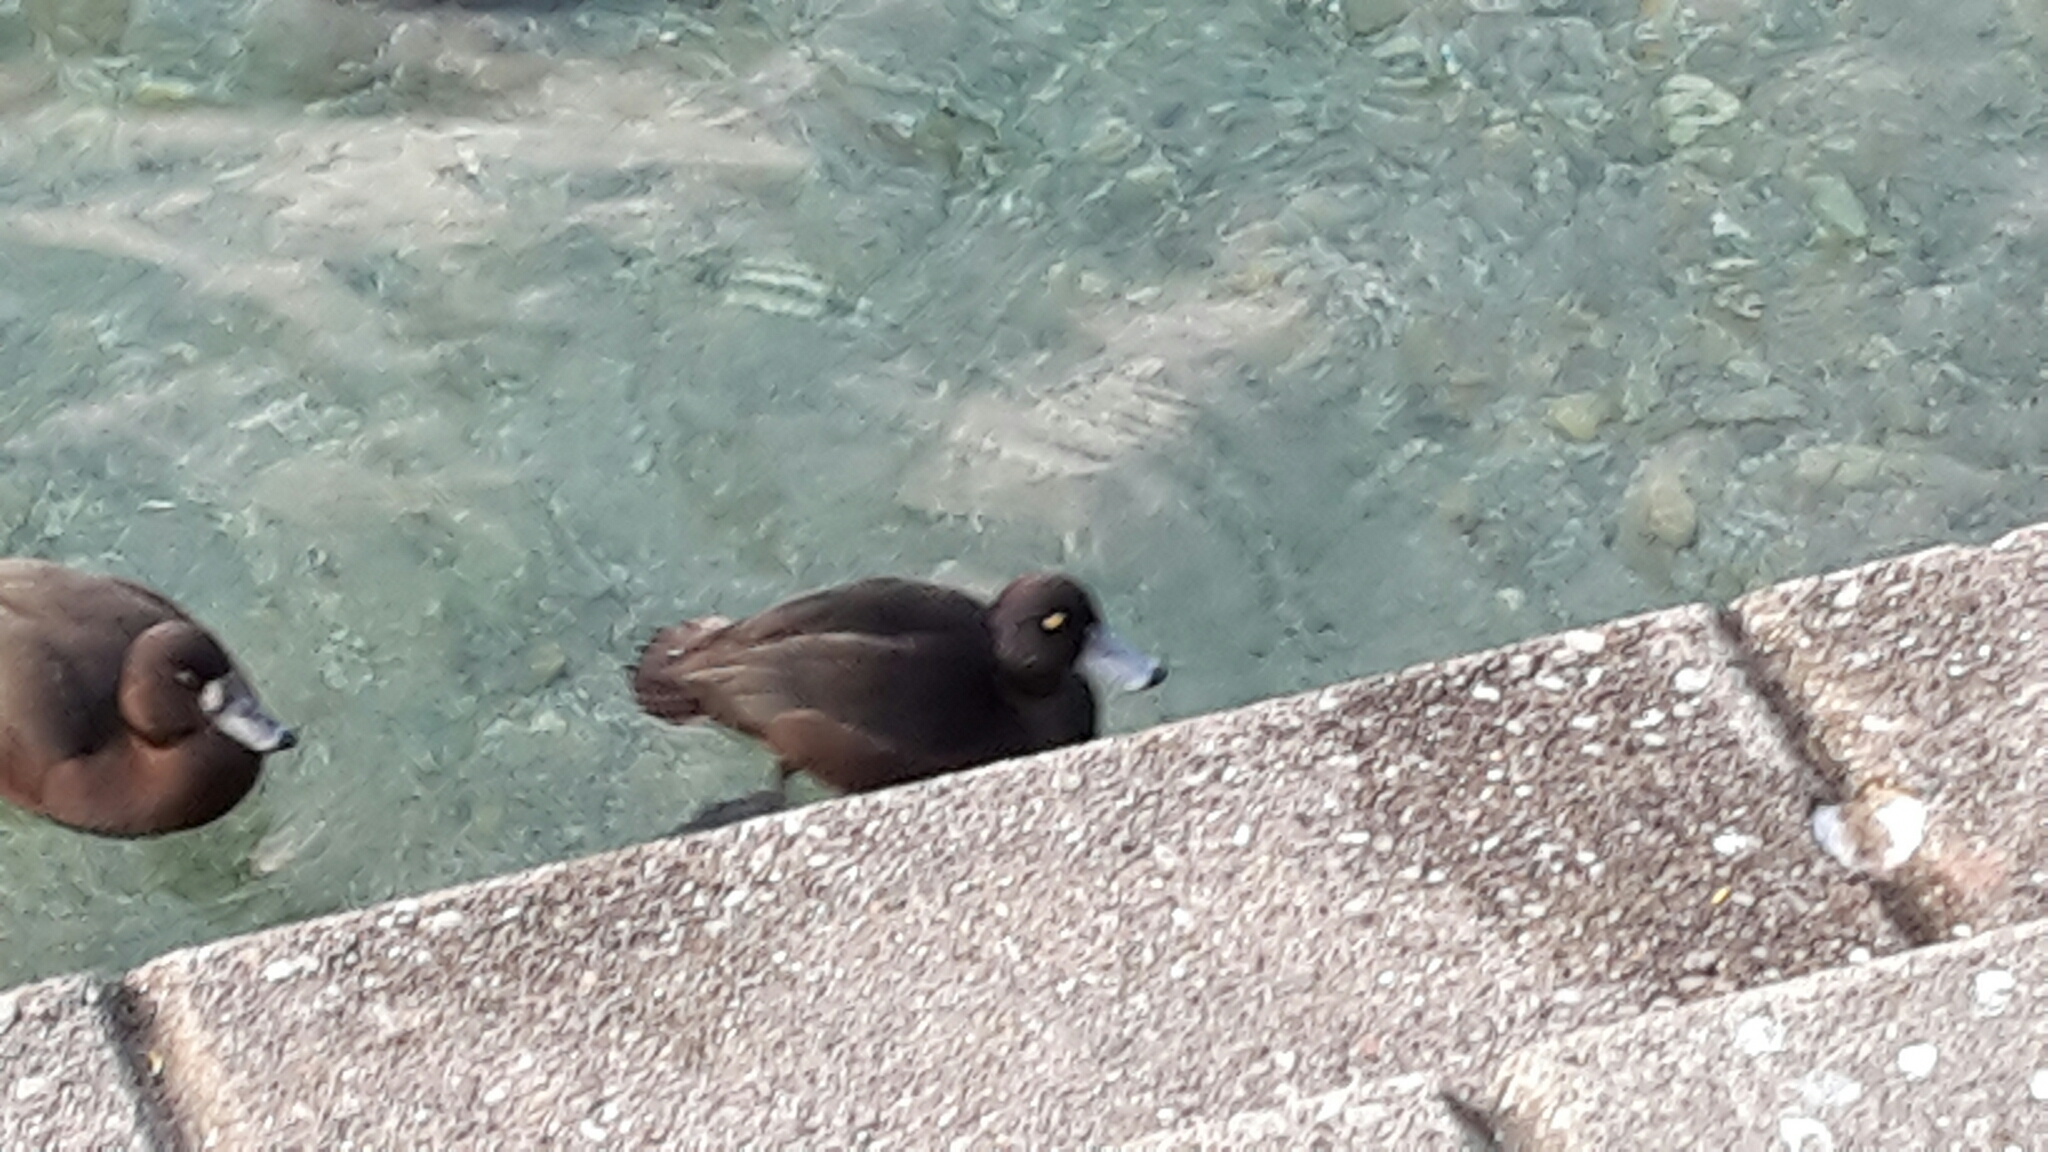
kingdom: Animalia
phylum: Chordata
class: Aves
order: Anseriformes
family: Anatidae
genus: Aythya
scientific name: Aythya novaeseelandiae
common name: New zealand scaup
